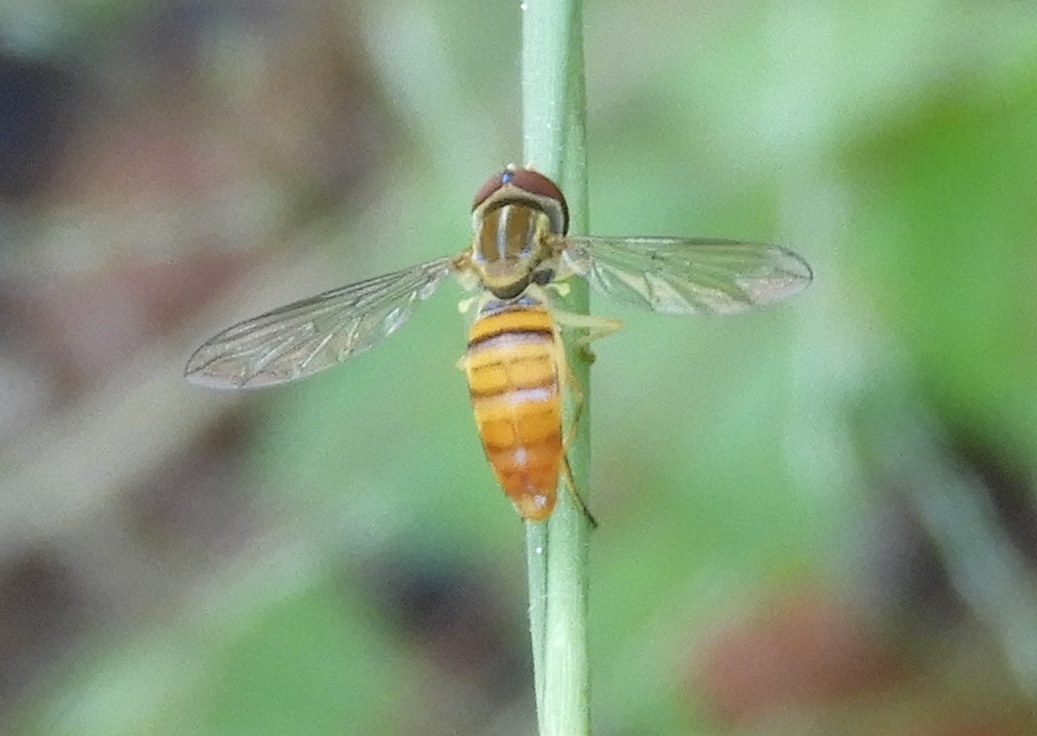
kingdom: Animalia
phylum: Arthropoda
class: Insecta
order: Diptera
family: Syrphidae
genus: Toxomerus
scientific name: Toxomerus politus
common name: Maize calligrapher
